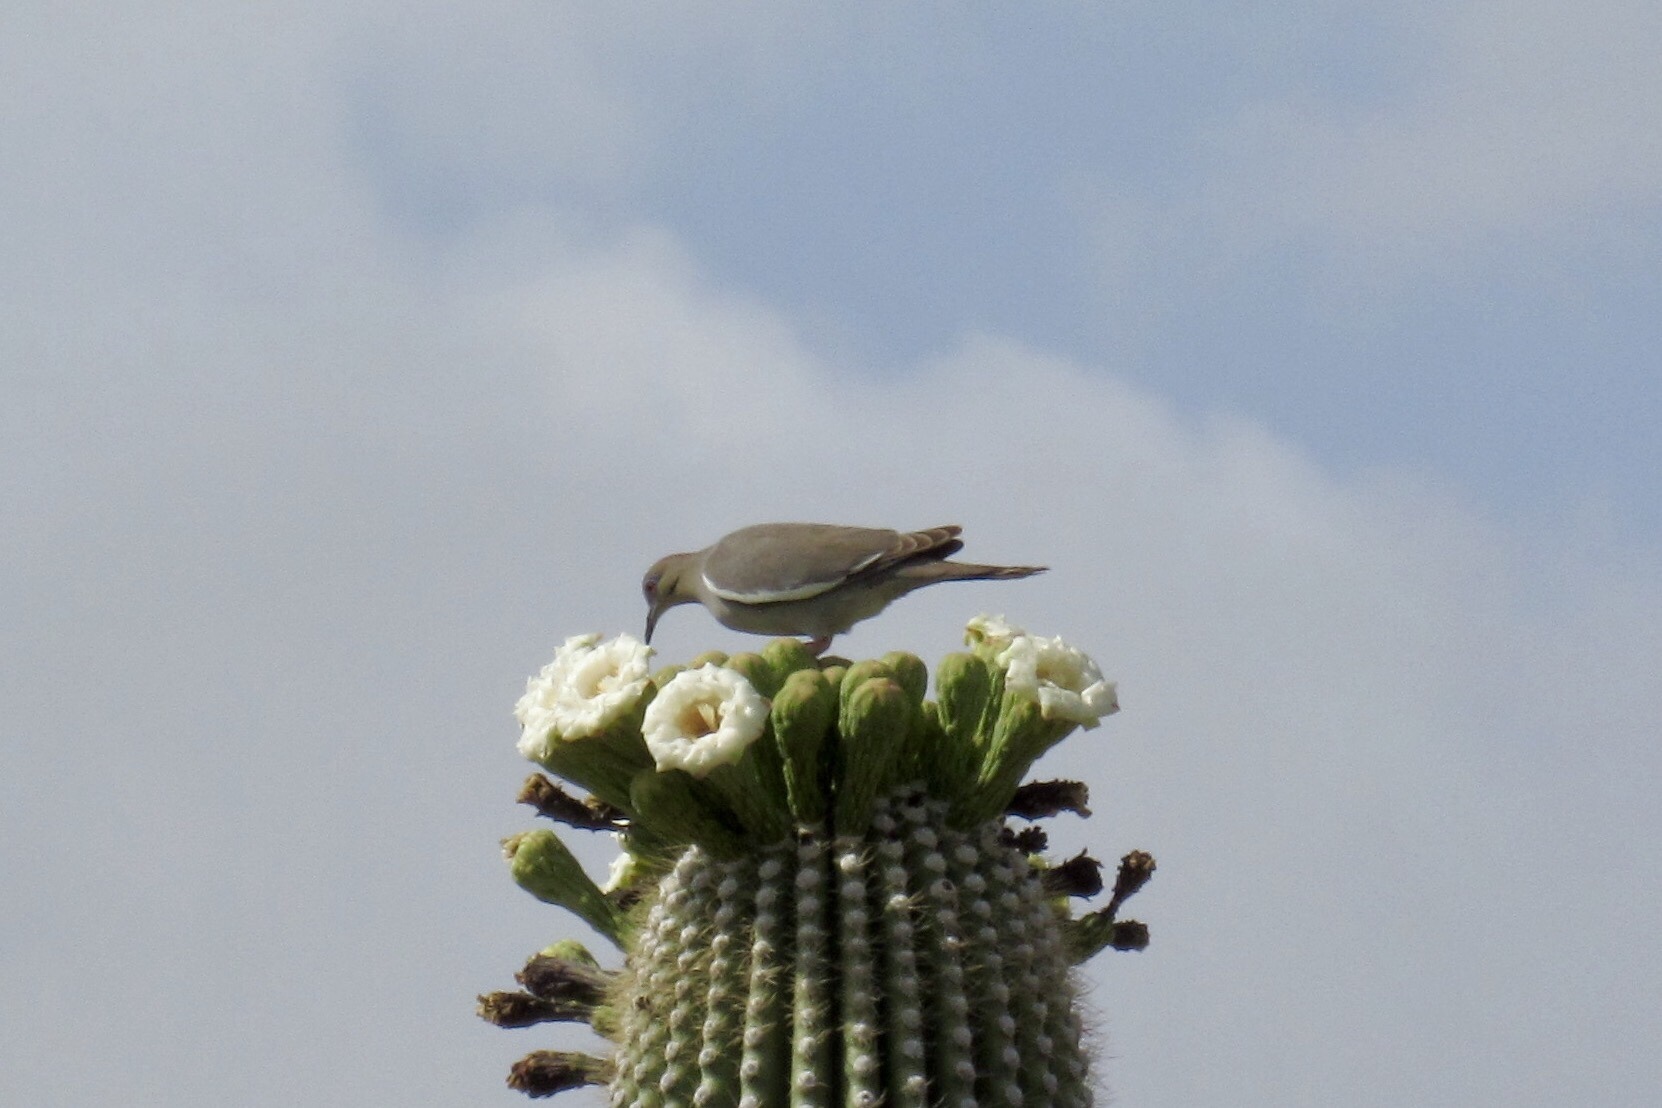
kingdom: Animalia
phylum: Chordata
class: Aves
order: Columbiformes
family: Columbidae
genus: Zenaida
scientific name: Zenaida asiatica
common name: White-winged dove
